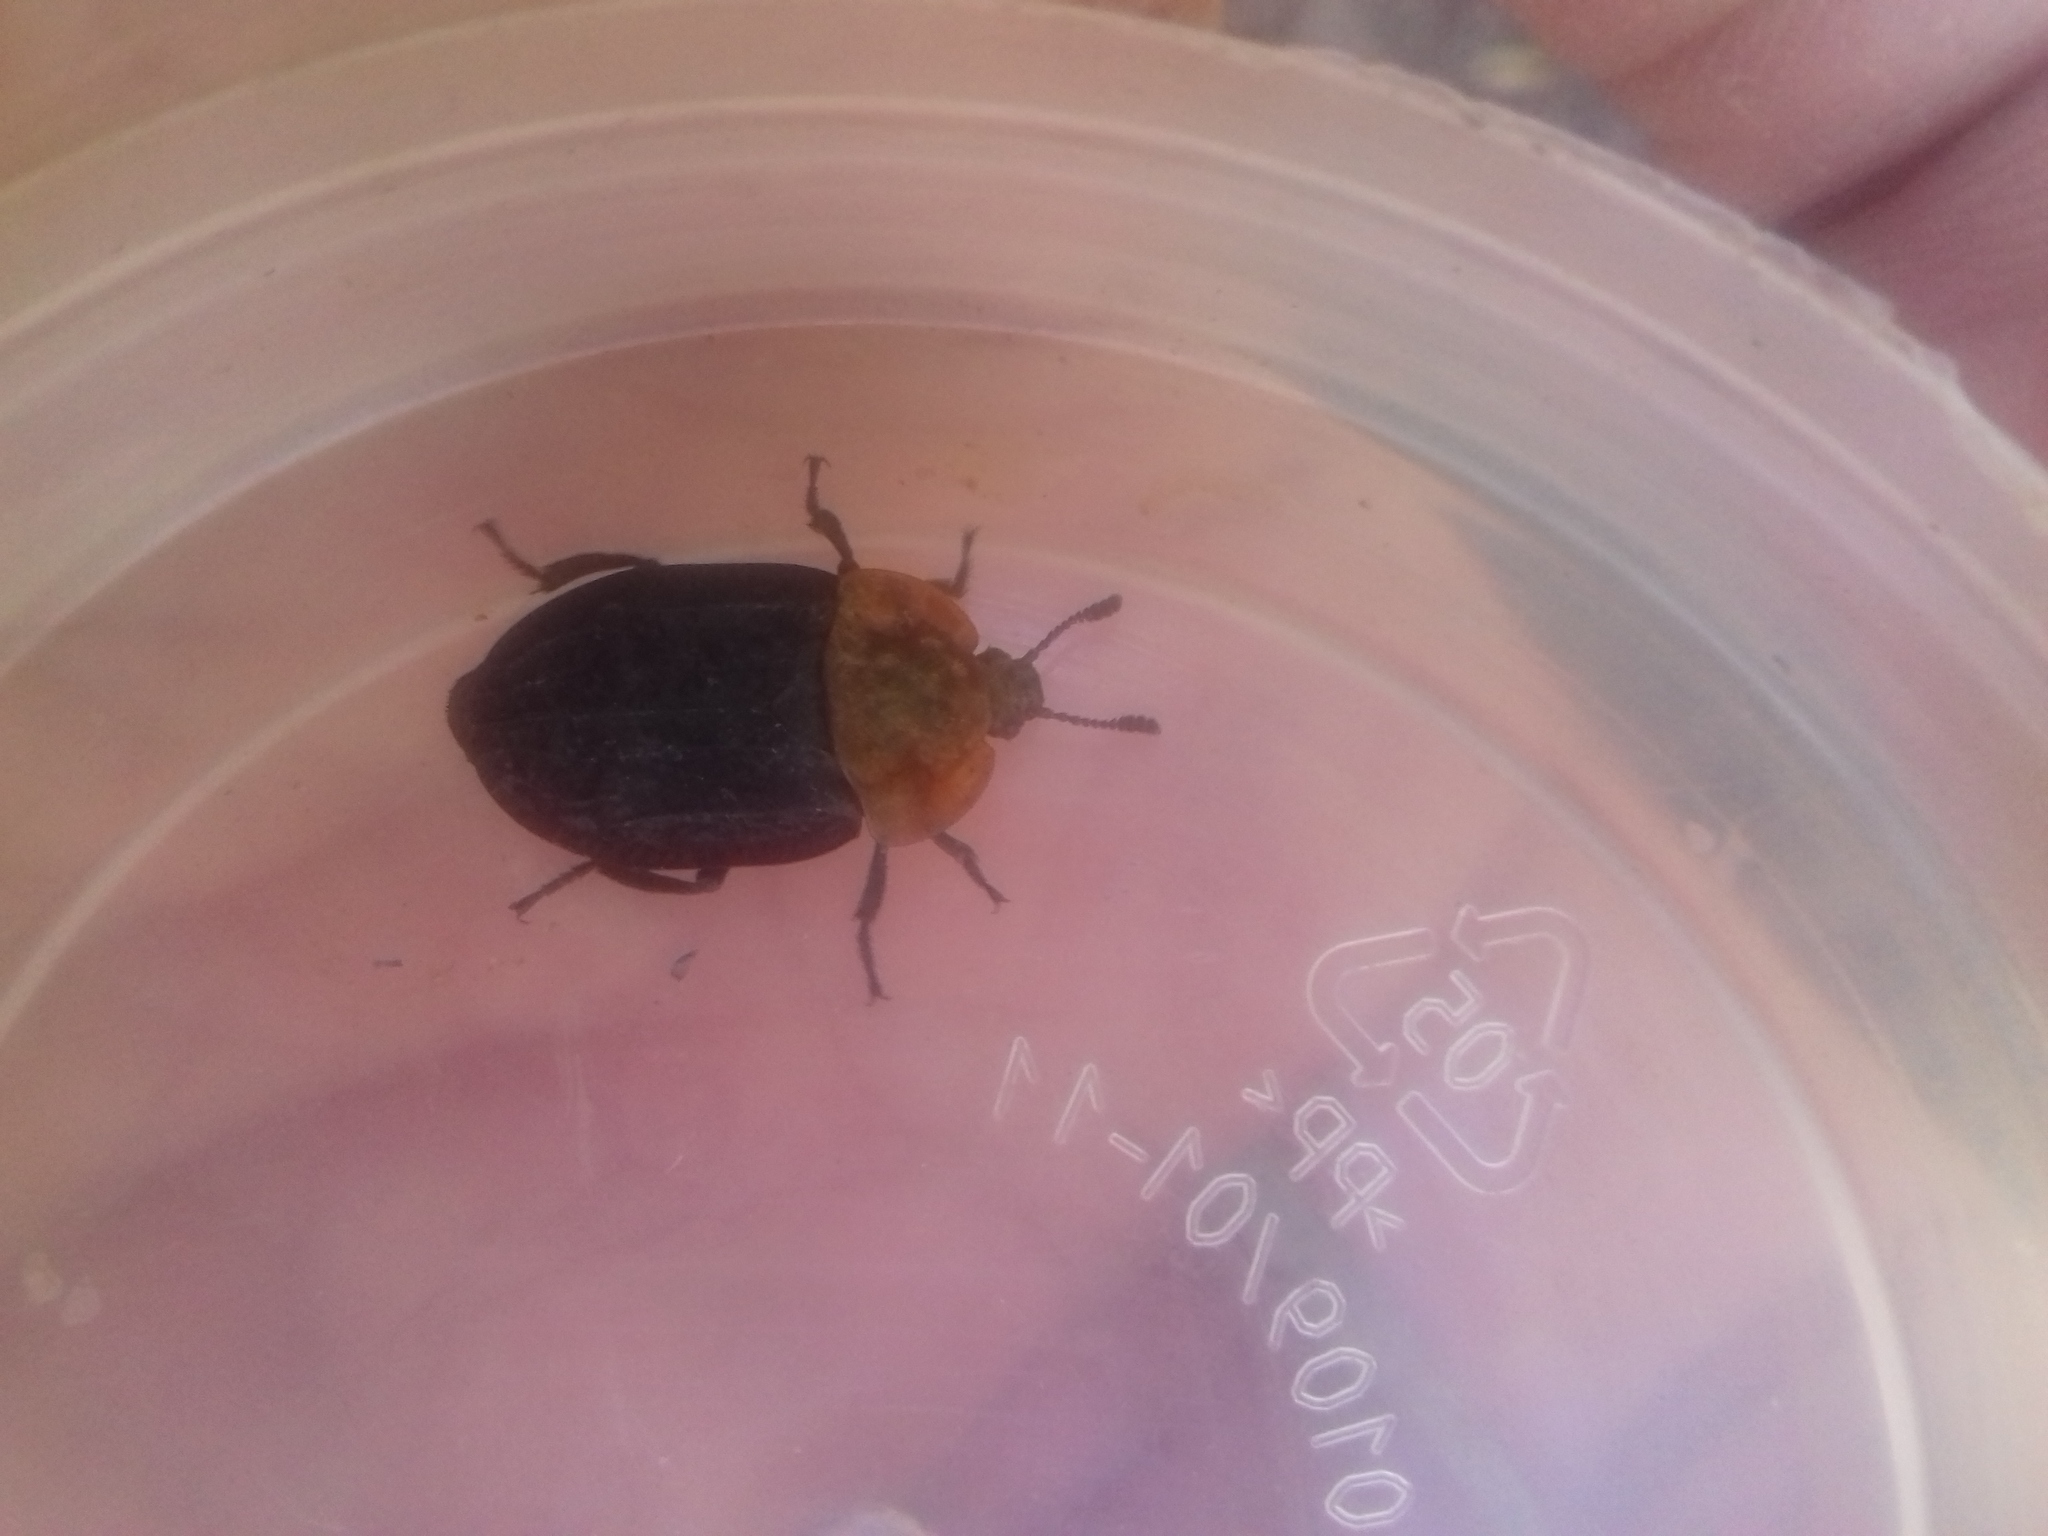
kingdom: Animalia
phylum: Arthropoda
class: Insecta
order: Coleoptera
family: Staphylinidae
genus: Oiceoptoma
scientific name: Oiceoptoma thoracicum
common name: Red-breasted carrion beetle
